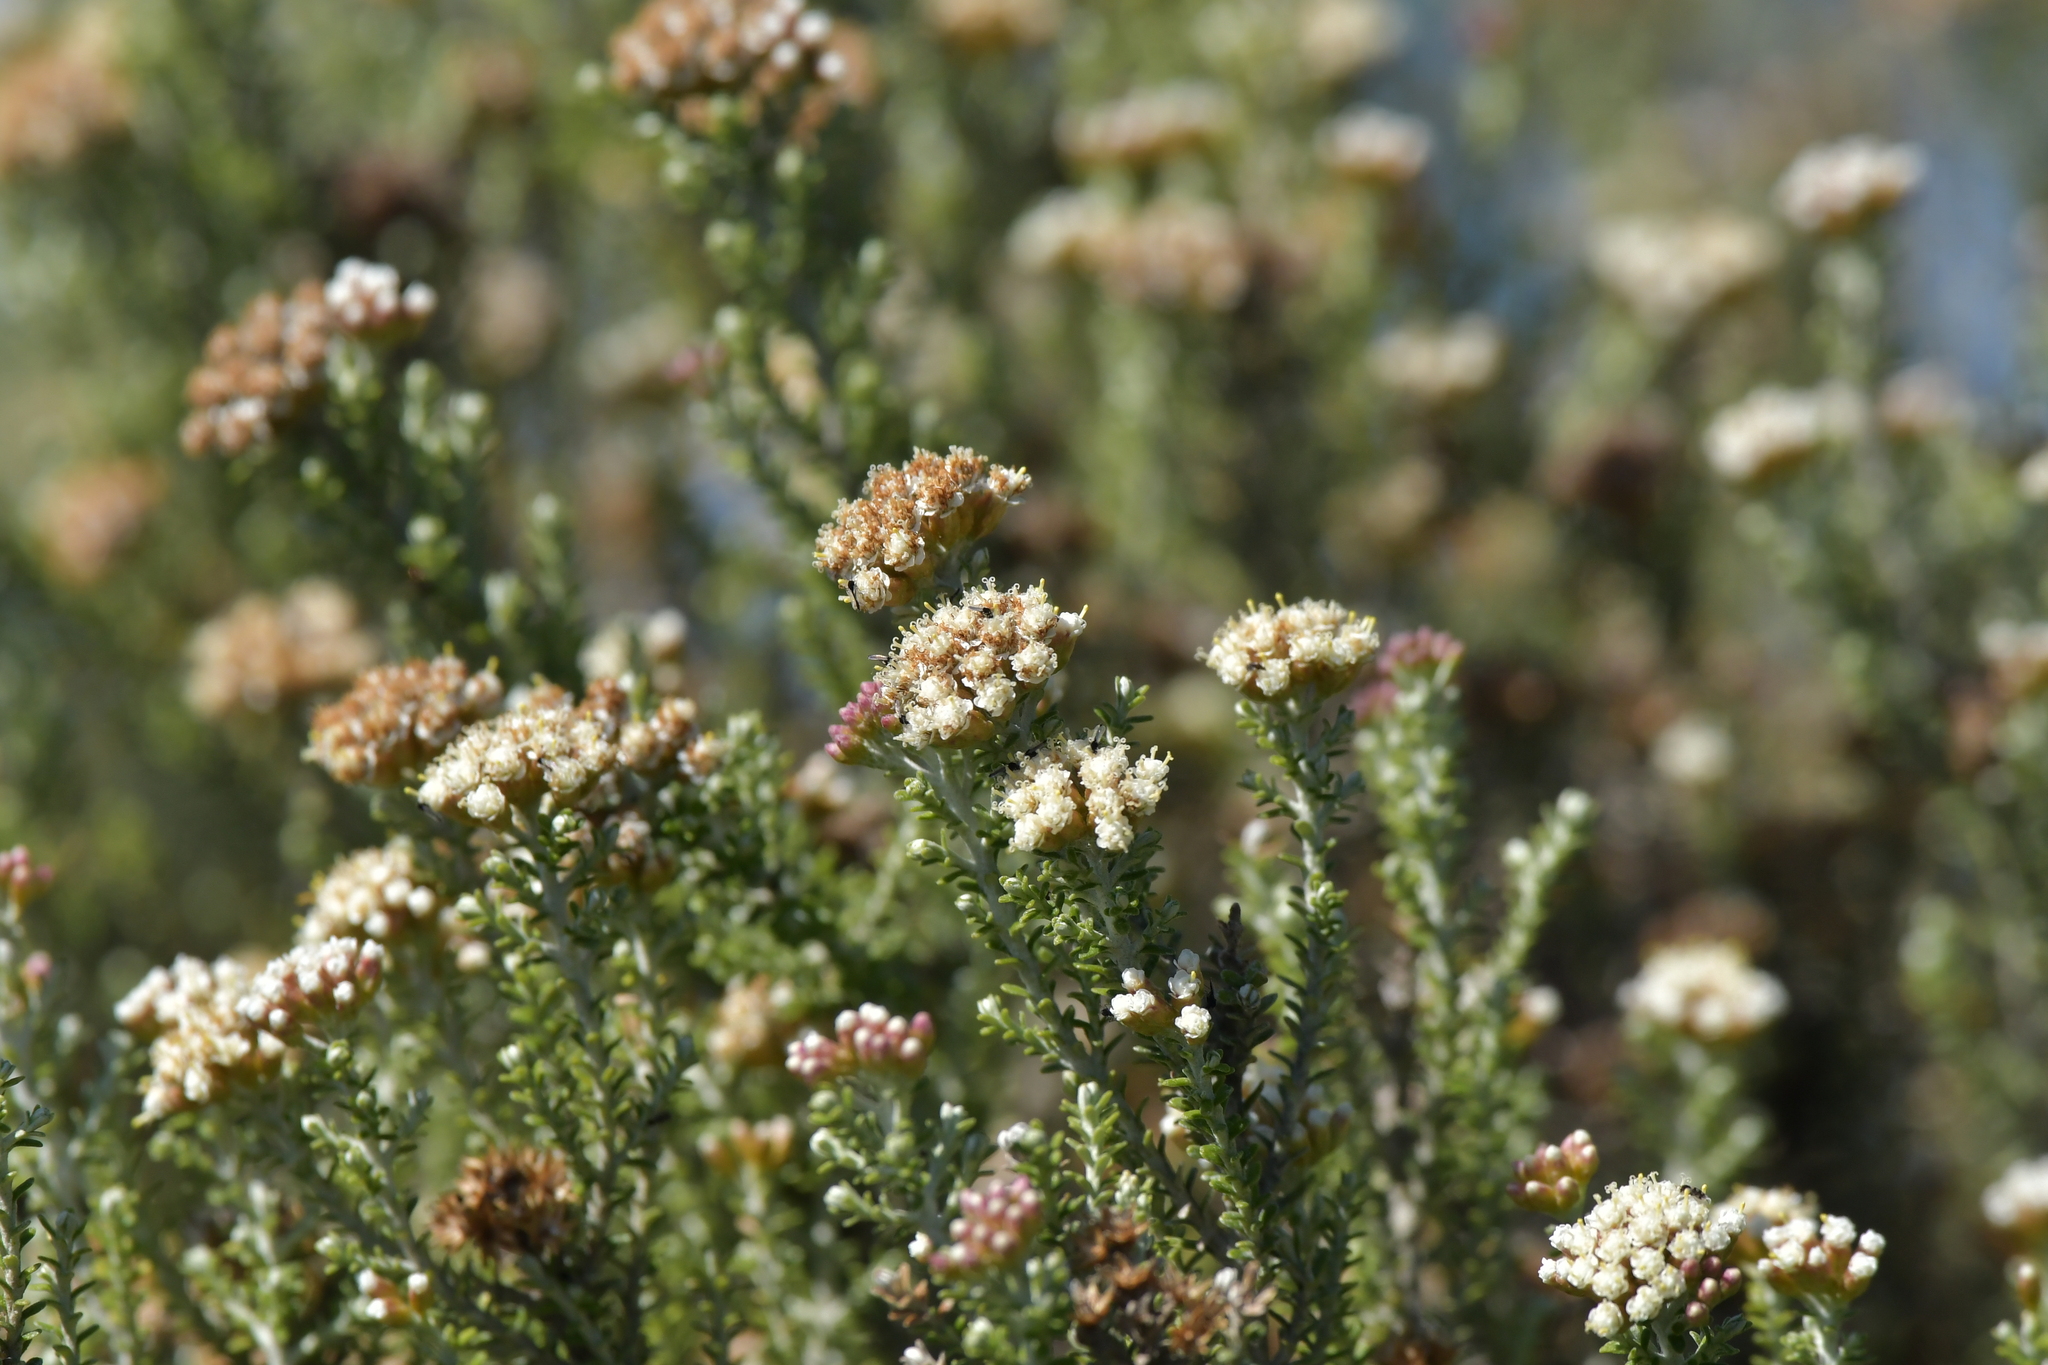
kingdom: Plantae
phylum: Tracheophyta
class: Magnoliopsida
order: Asterales
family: Asteraceae
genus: Ozothamnus
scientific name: Ozothamnus leptophyllus
